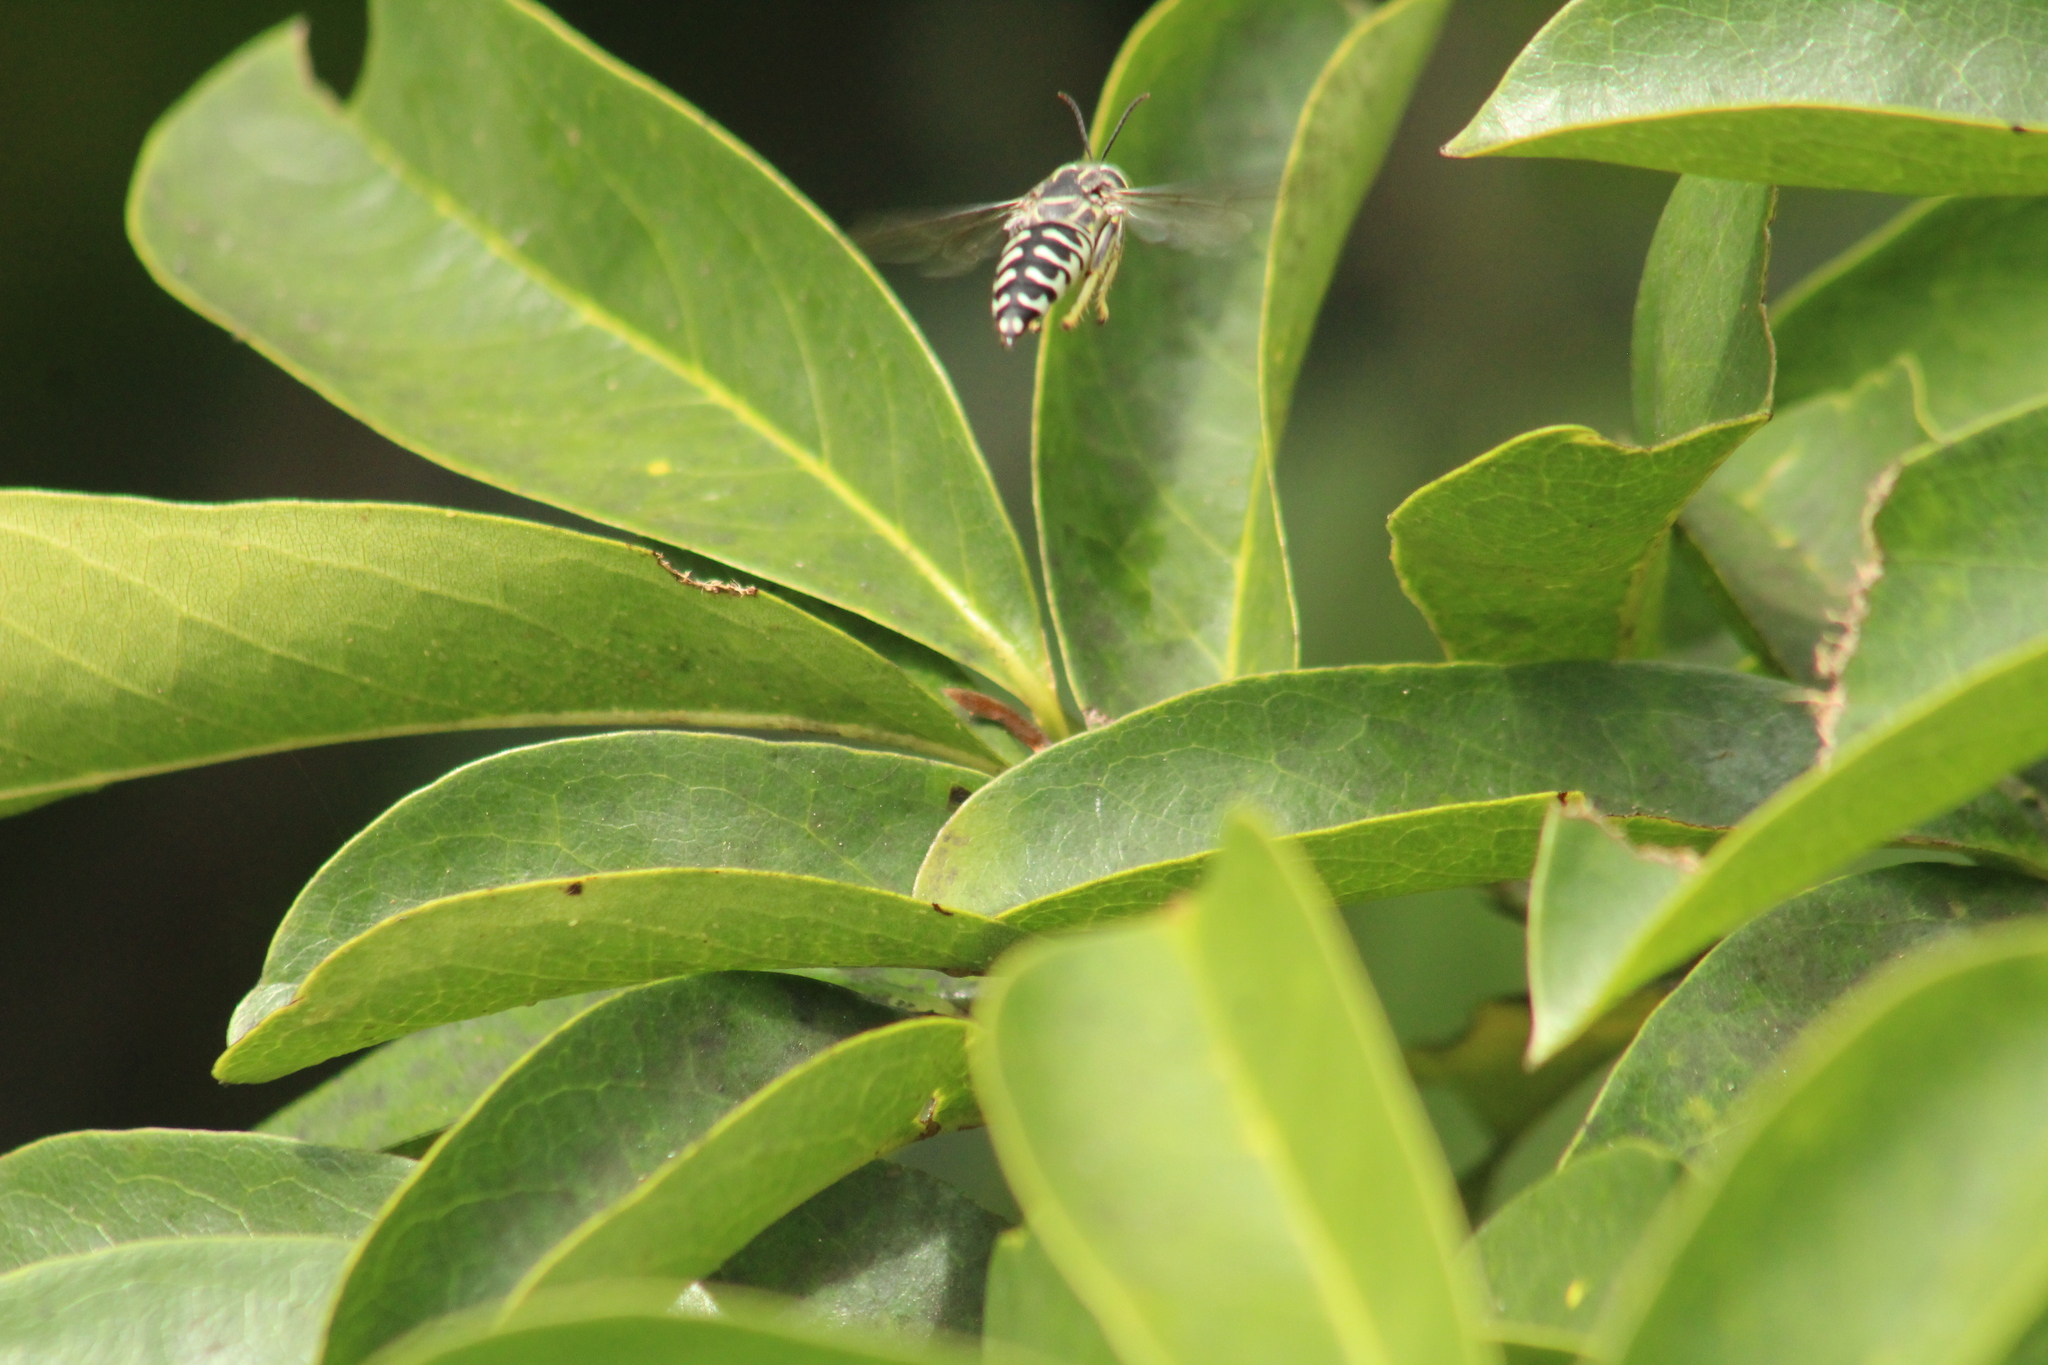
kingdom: Animalia
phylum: Arthropoda
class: Insecta
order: Hymenoptera
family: Crabronidae
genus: Stictia
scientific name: Stictia signata
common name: Sand wasp
